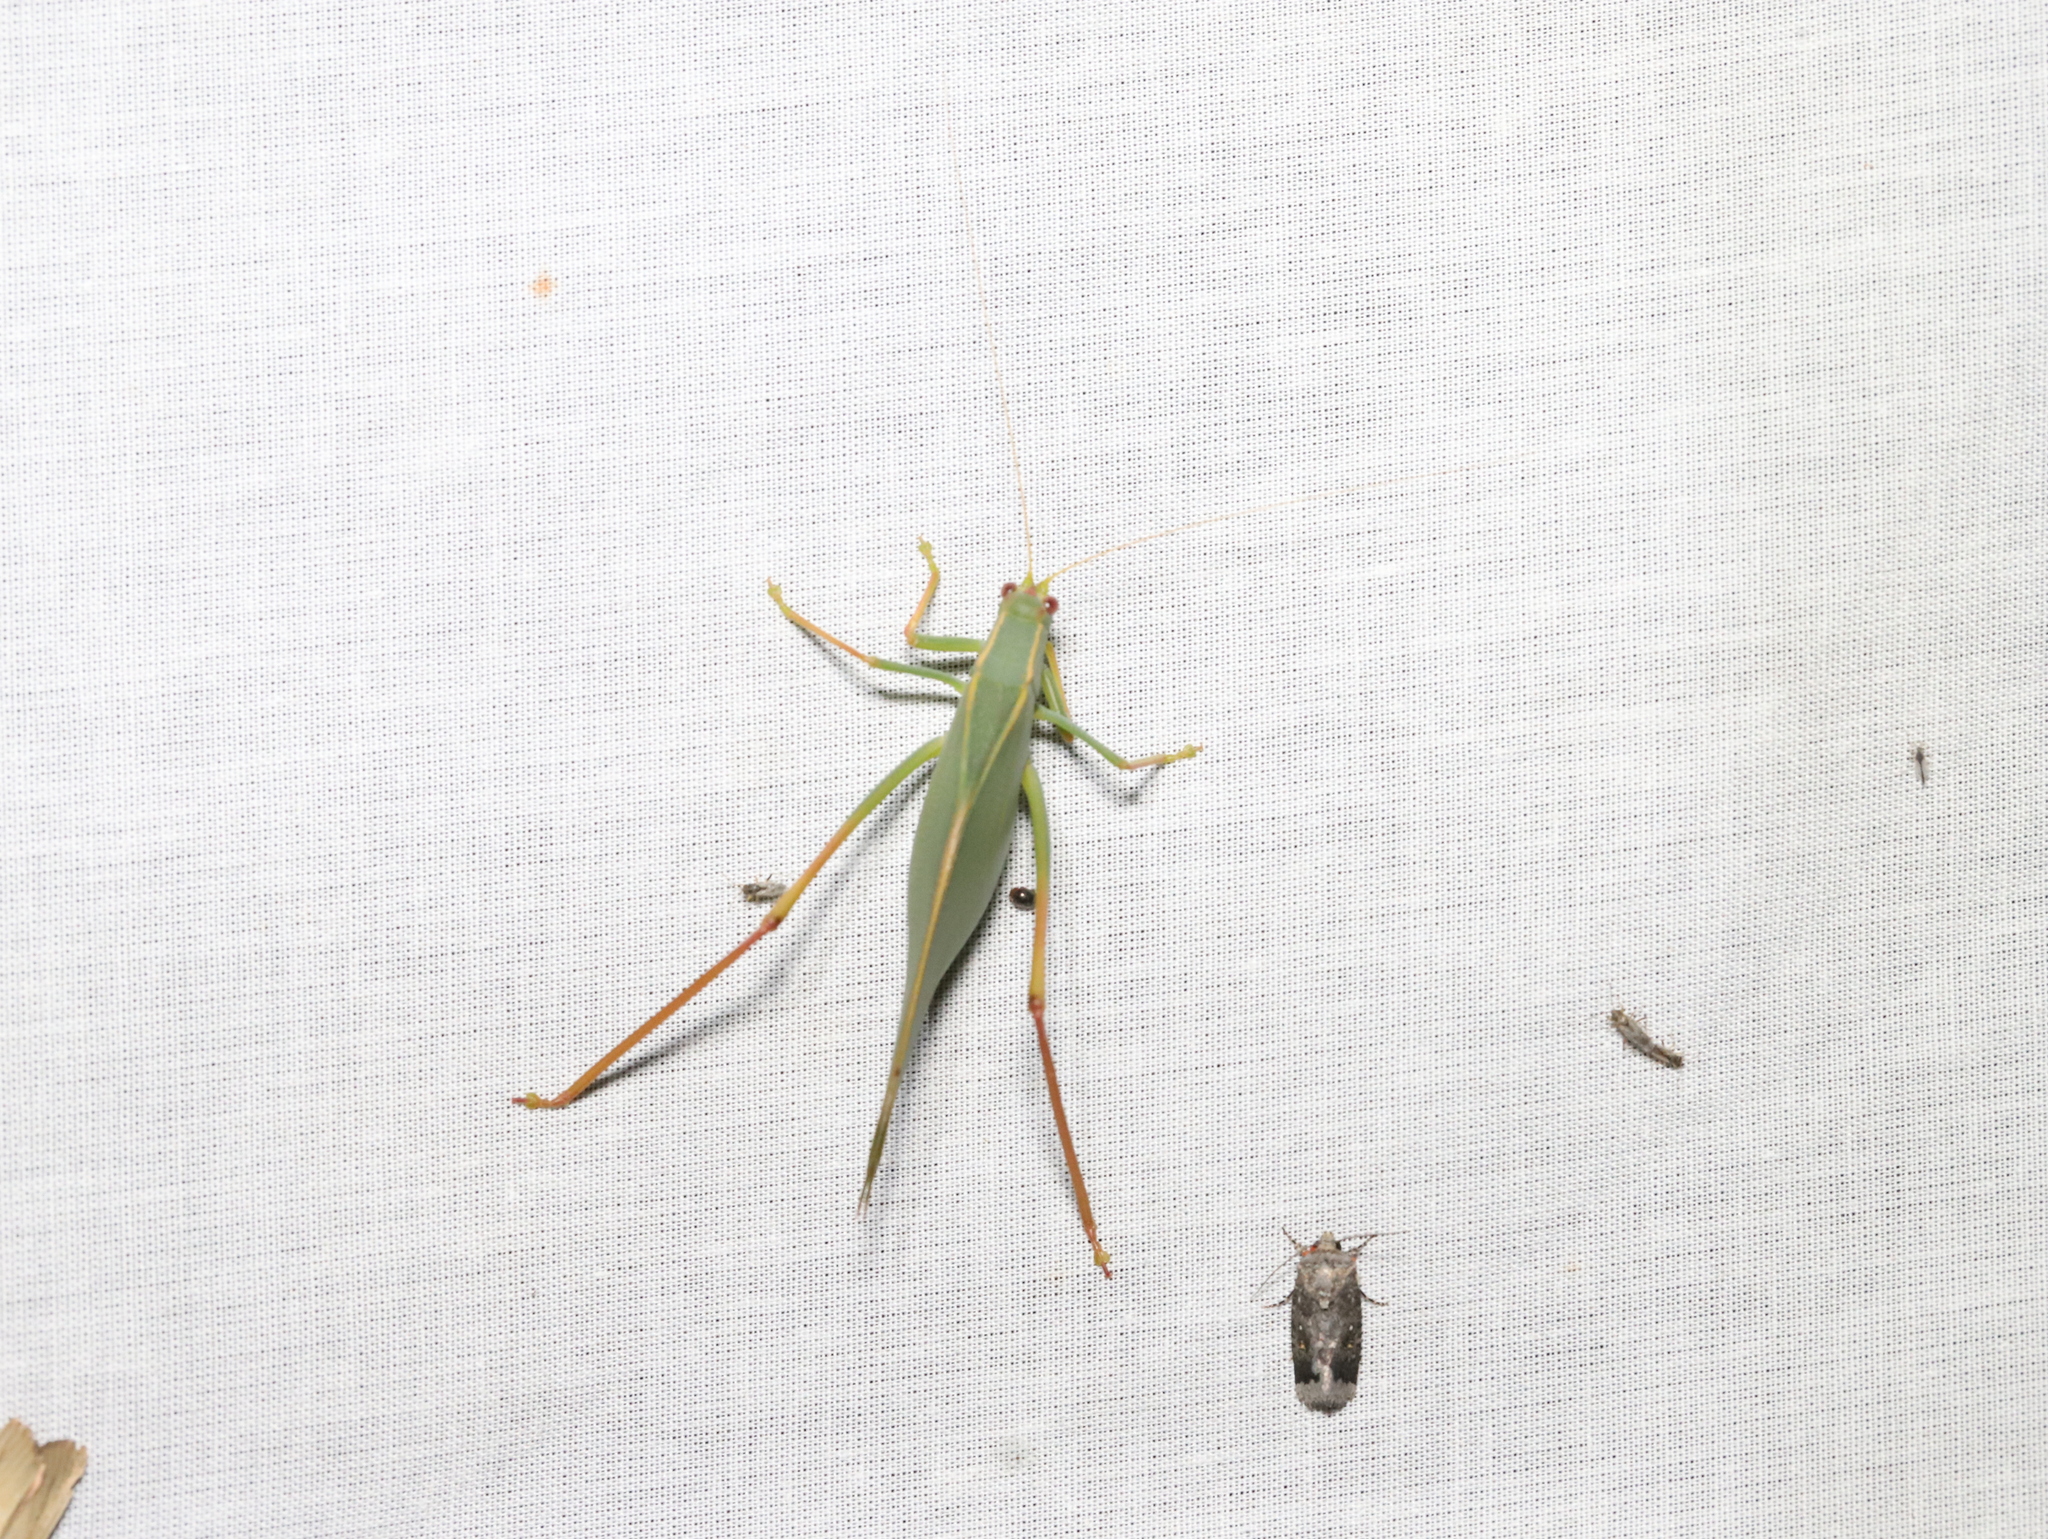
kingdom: Animalia
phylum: Arthropoda
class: Insecta
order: Orthoptera
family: Tettigoniidae
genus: Torbia
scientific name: Torbia viridissima
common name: Non-predaceous gum leaf katydid
